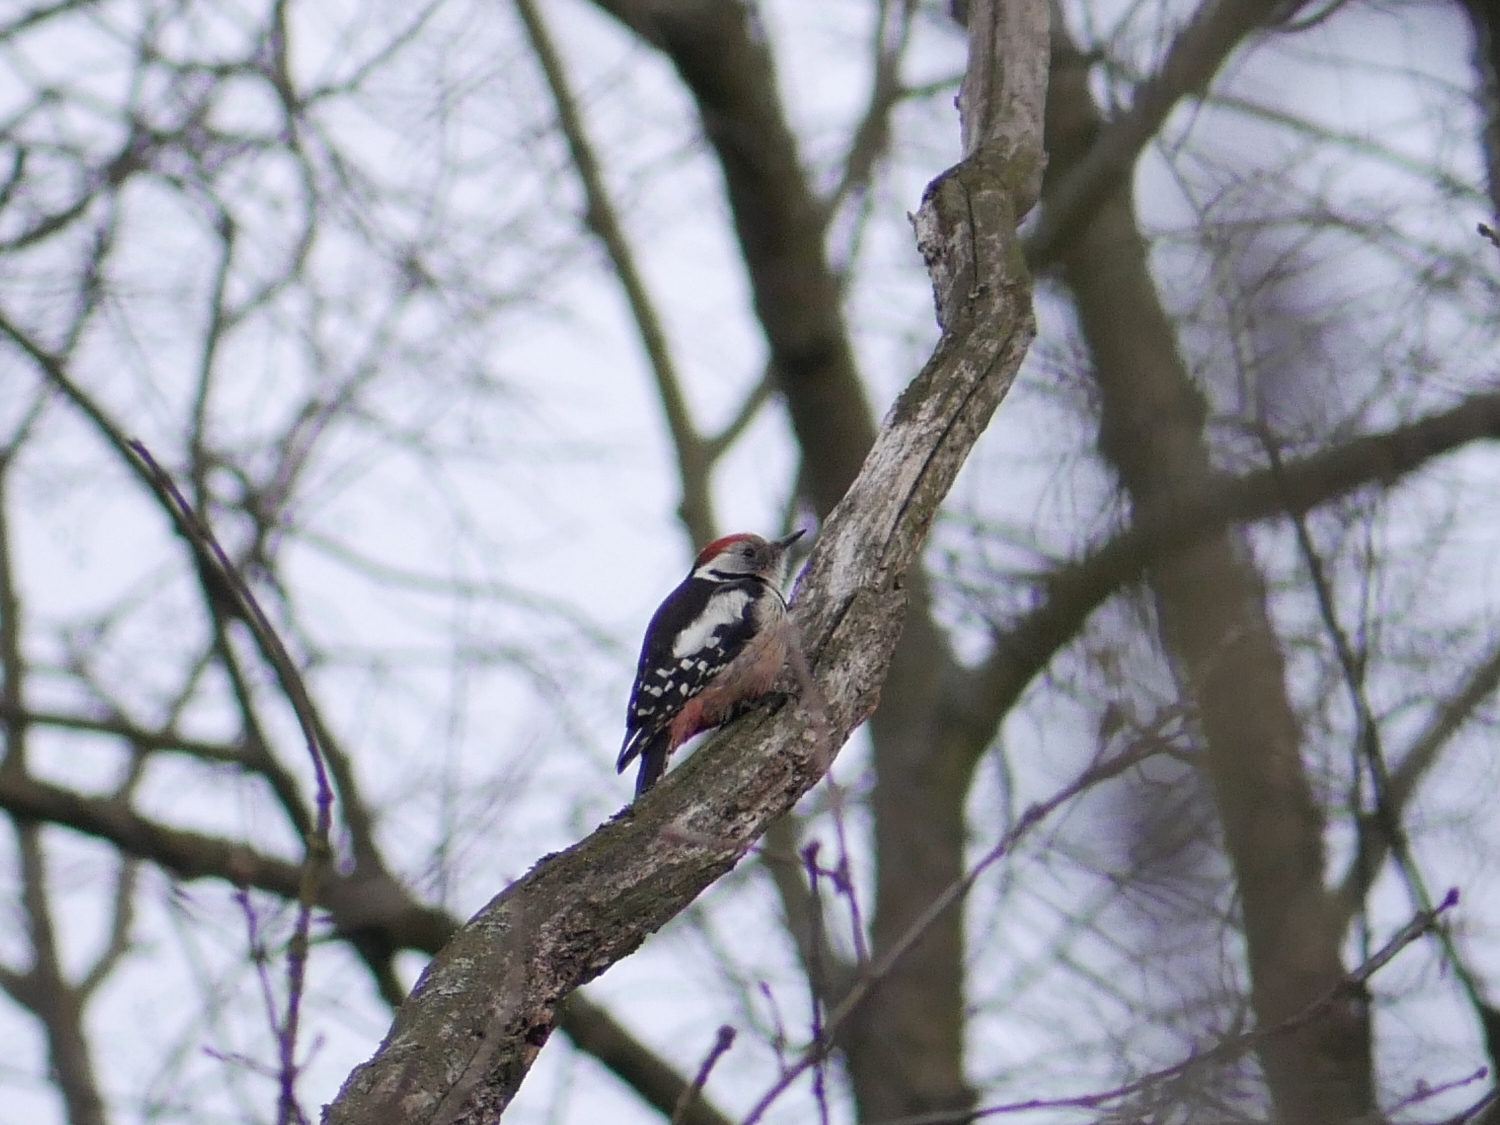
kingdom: Animalia
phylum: Chordata
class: Aves
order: Piciformes
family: Picidae
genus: Dendrocoptes
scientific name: Dendrocoptes medius
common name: Middle spotted woodpecker
